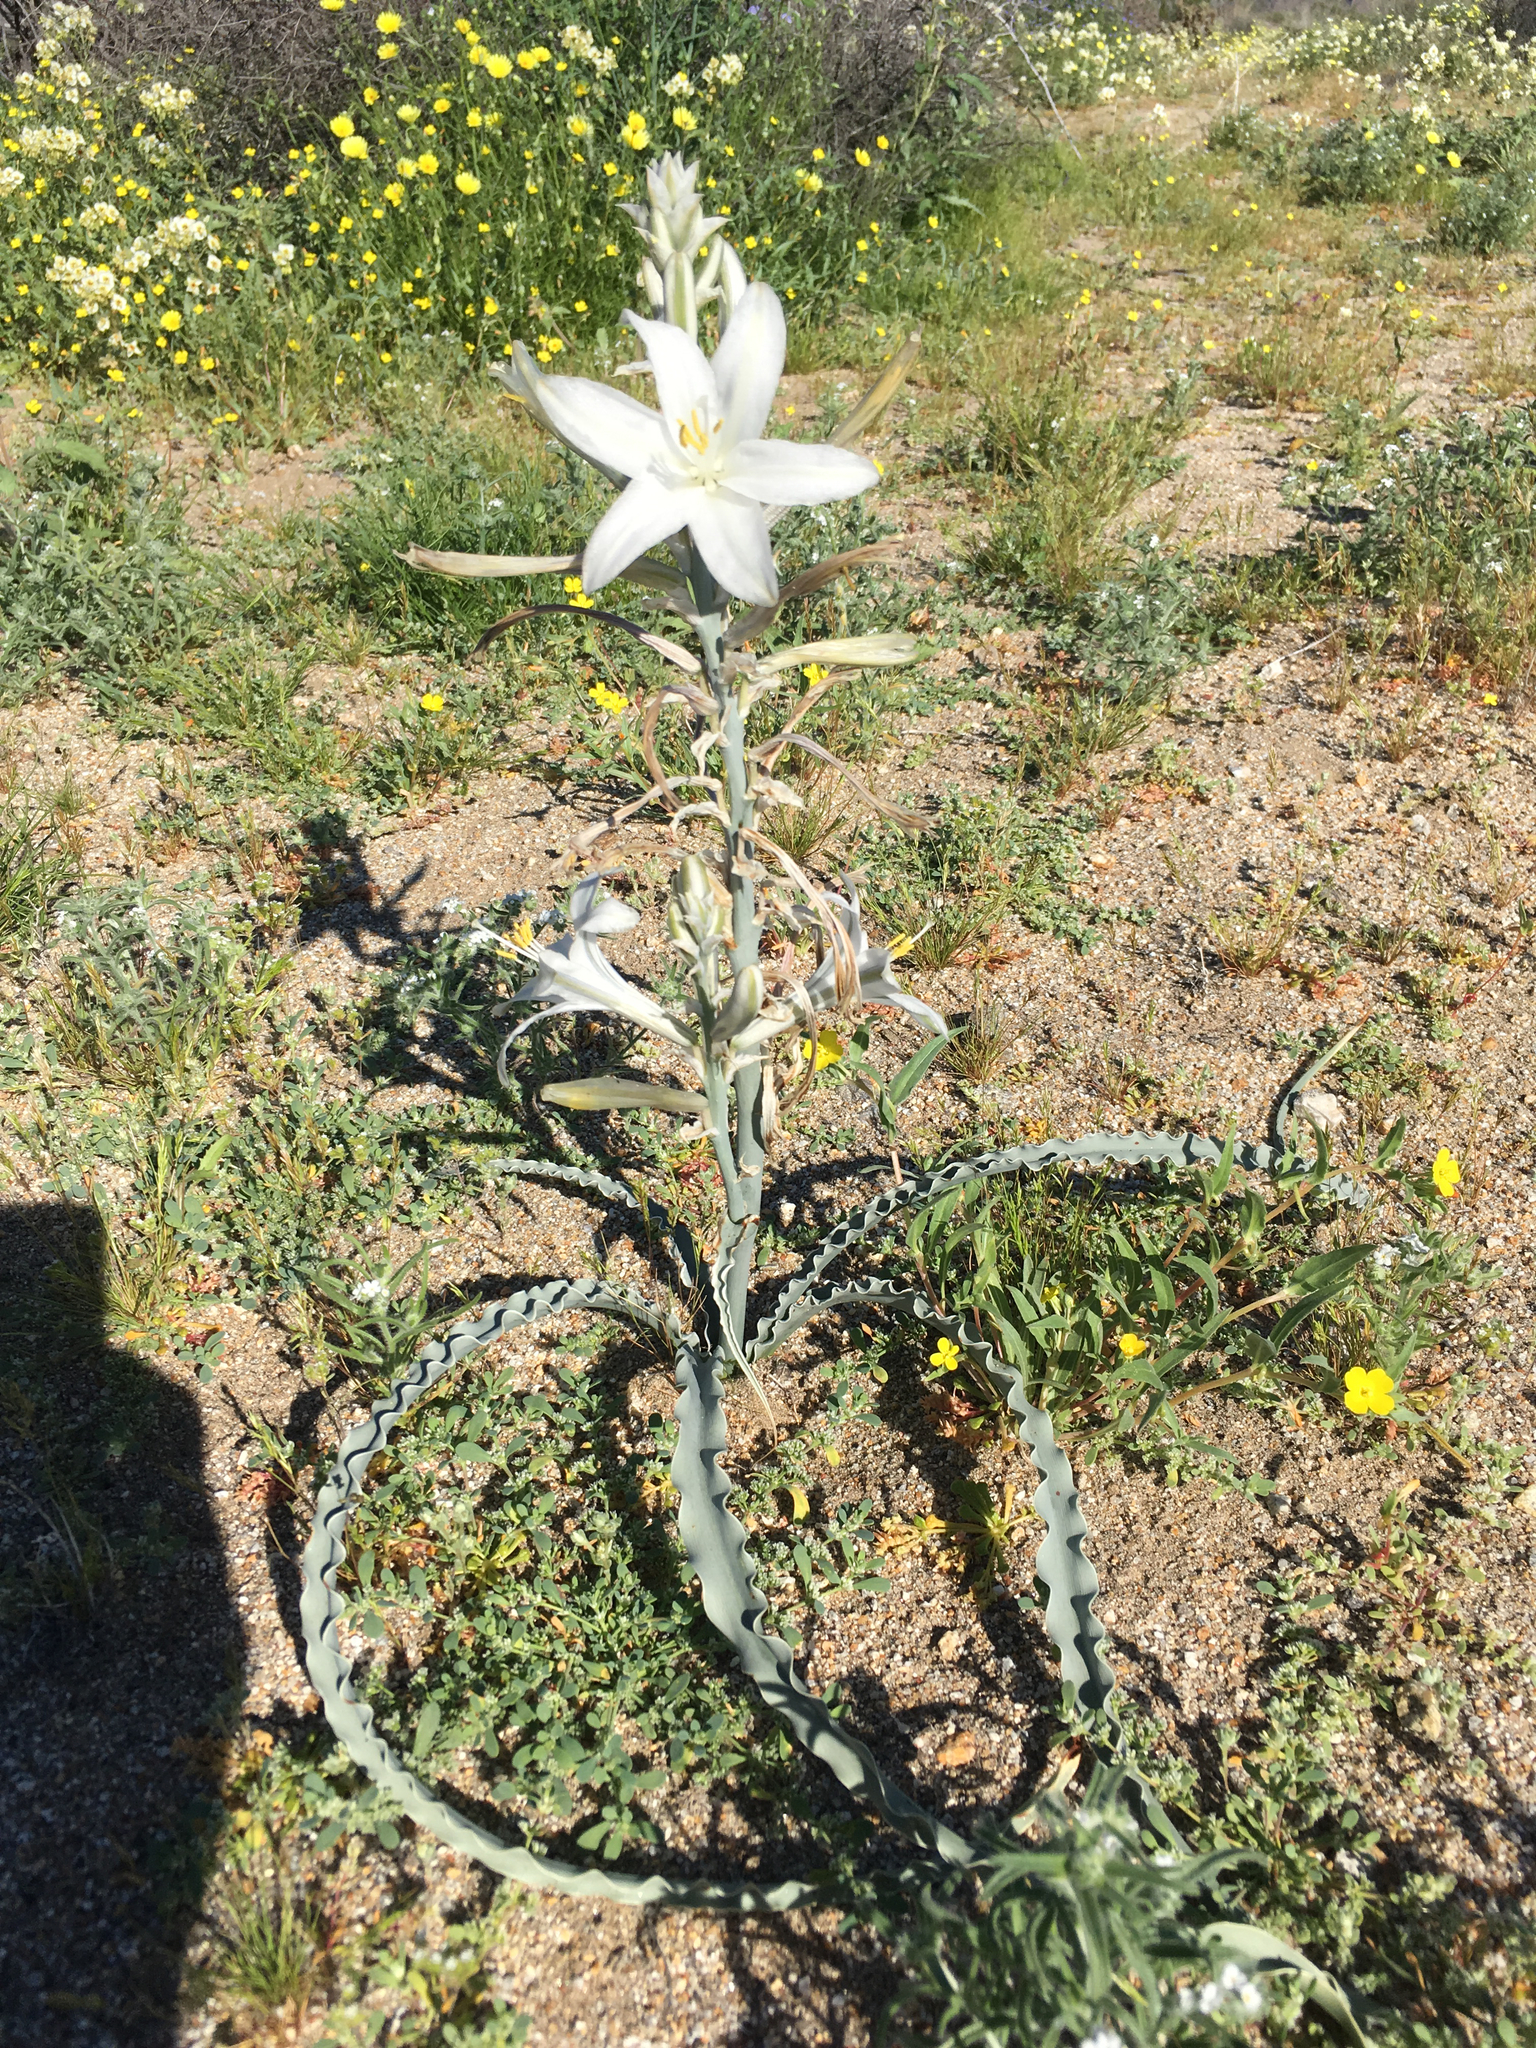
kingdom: Plantae
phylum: Tracheophyta
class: Liliopsida
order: Asparagales
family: Asparagaceae
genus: Hesperocallis
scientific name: Hesperocallis undulata
